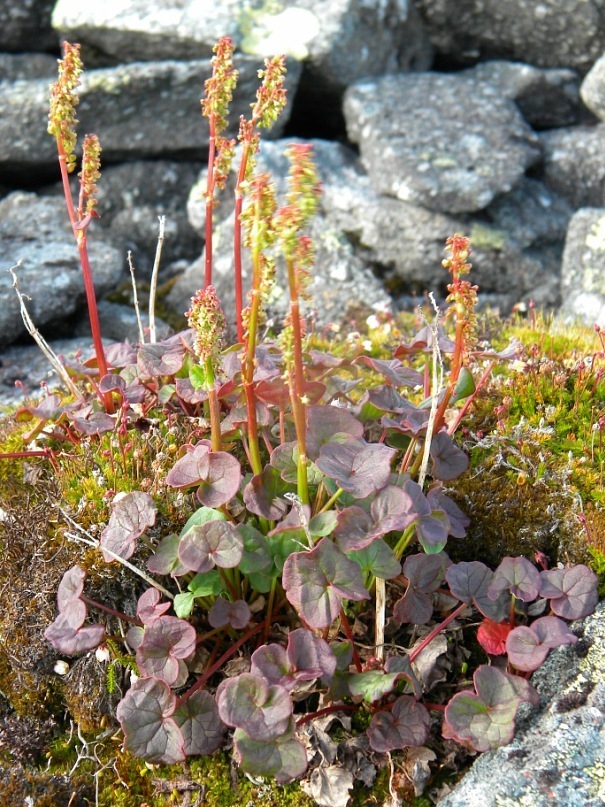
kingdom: Plantae
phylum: Tracheophyta
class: Magnoliopsida
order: Caryophyllales
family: Polygonaceae
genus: Oxyria
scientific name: Oxyria digyna
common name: Alpine mountain-sorrel
